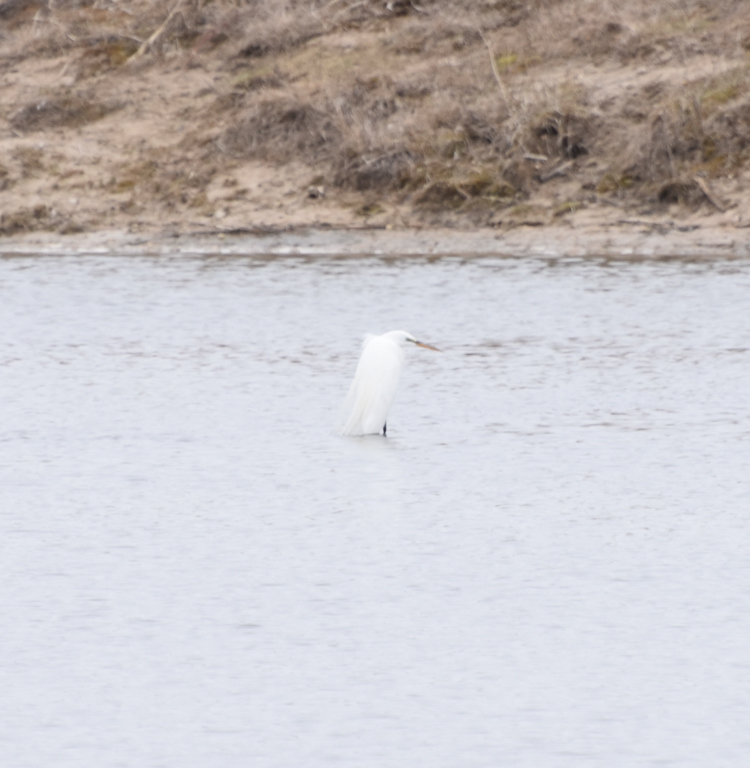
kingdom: Animalia
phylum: Chordata
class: Aves
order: Pelecaniformes
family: Ardeidae
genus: Ardea
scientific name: Ardea alba
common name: Great egret
